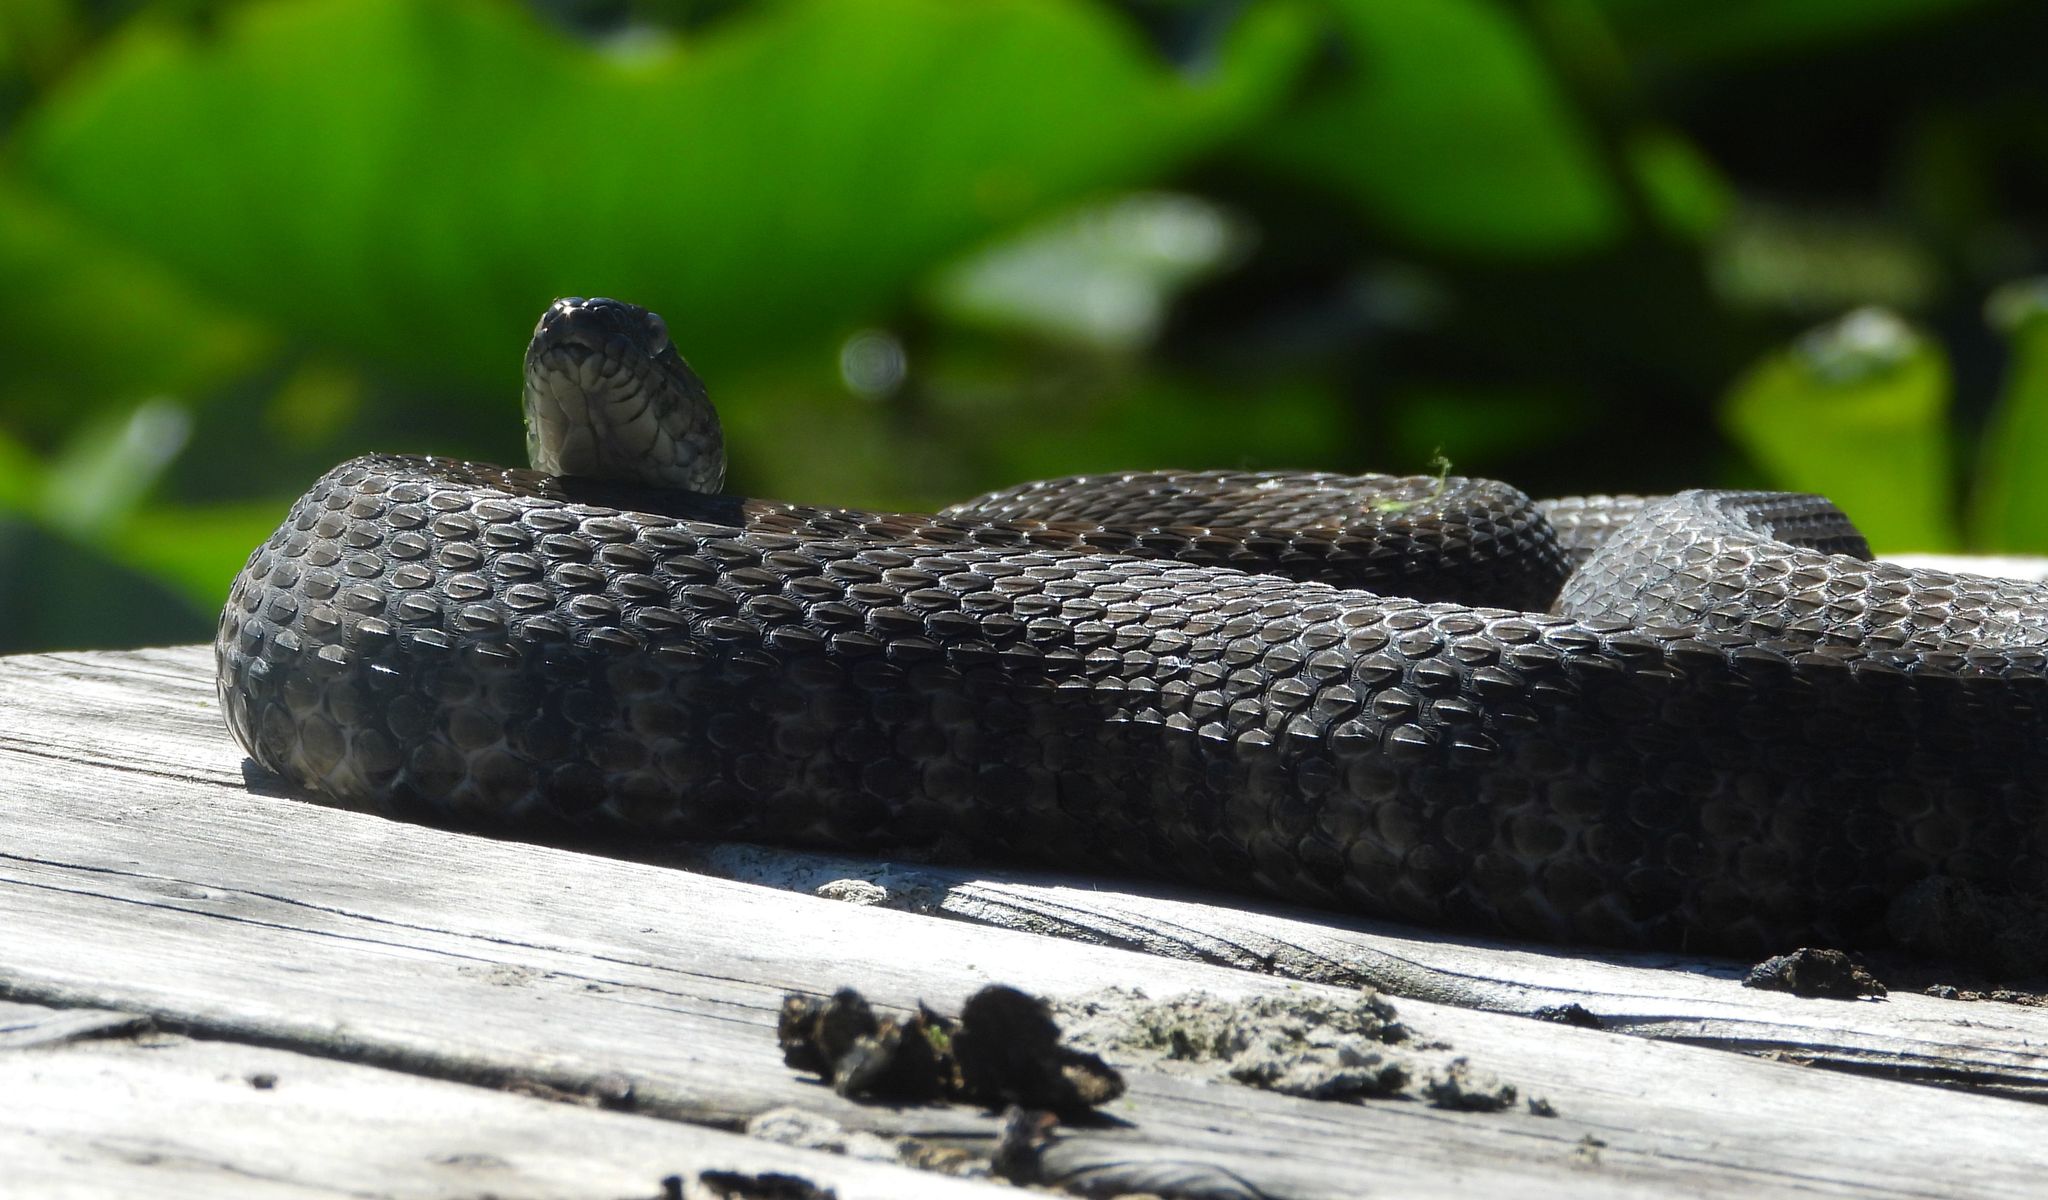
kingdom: Animalia
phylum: Chordata
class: Squamata
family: Colubridae
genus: Nerodia
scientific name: Nerodia sipedon
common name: Northern water snake
